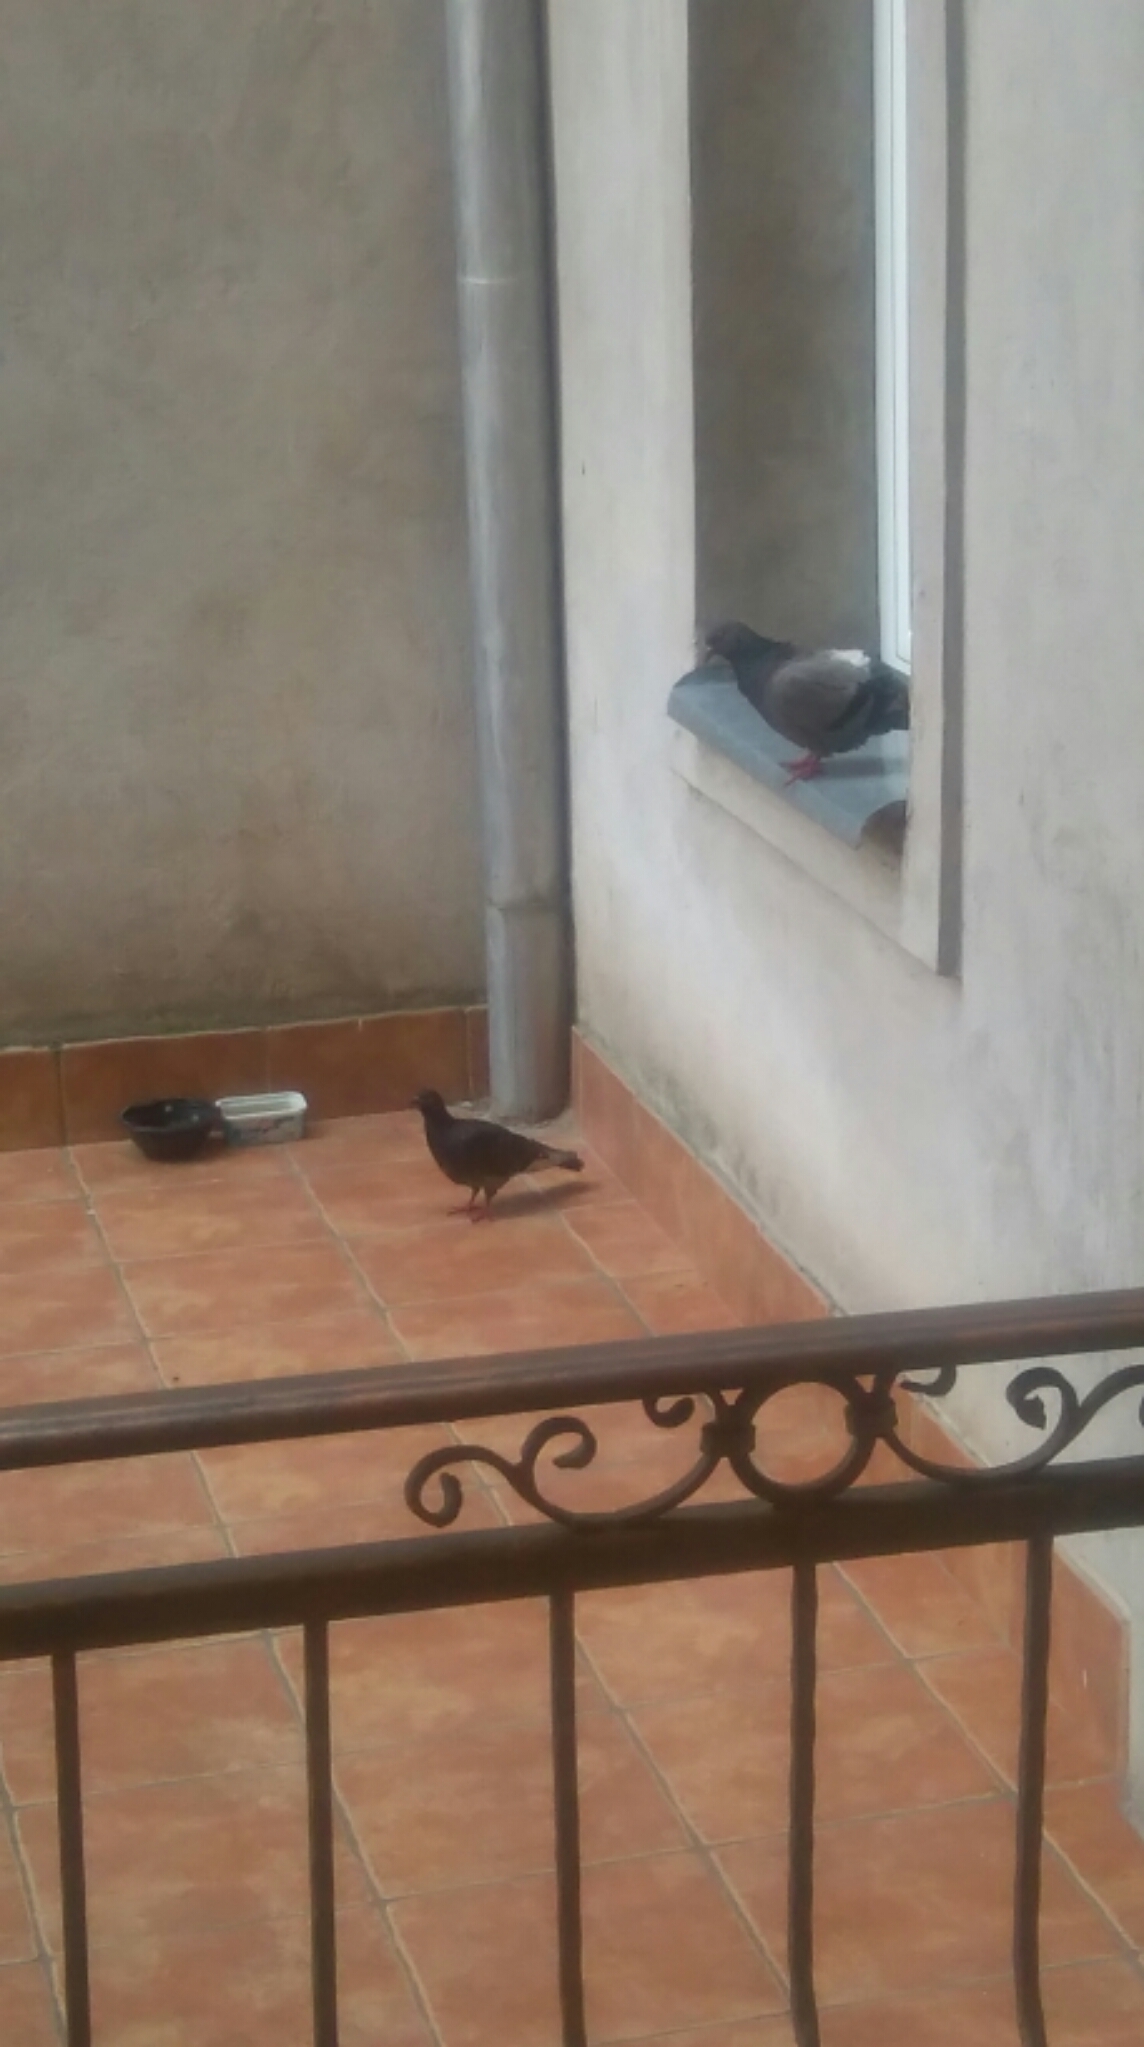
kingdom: Animalia
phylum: Chordata
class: Aves
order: Columbiformes
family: Columbidae
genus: Columba
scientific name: Columba livia
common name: Rock pigeon
